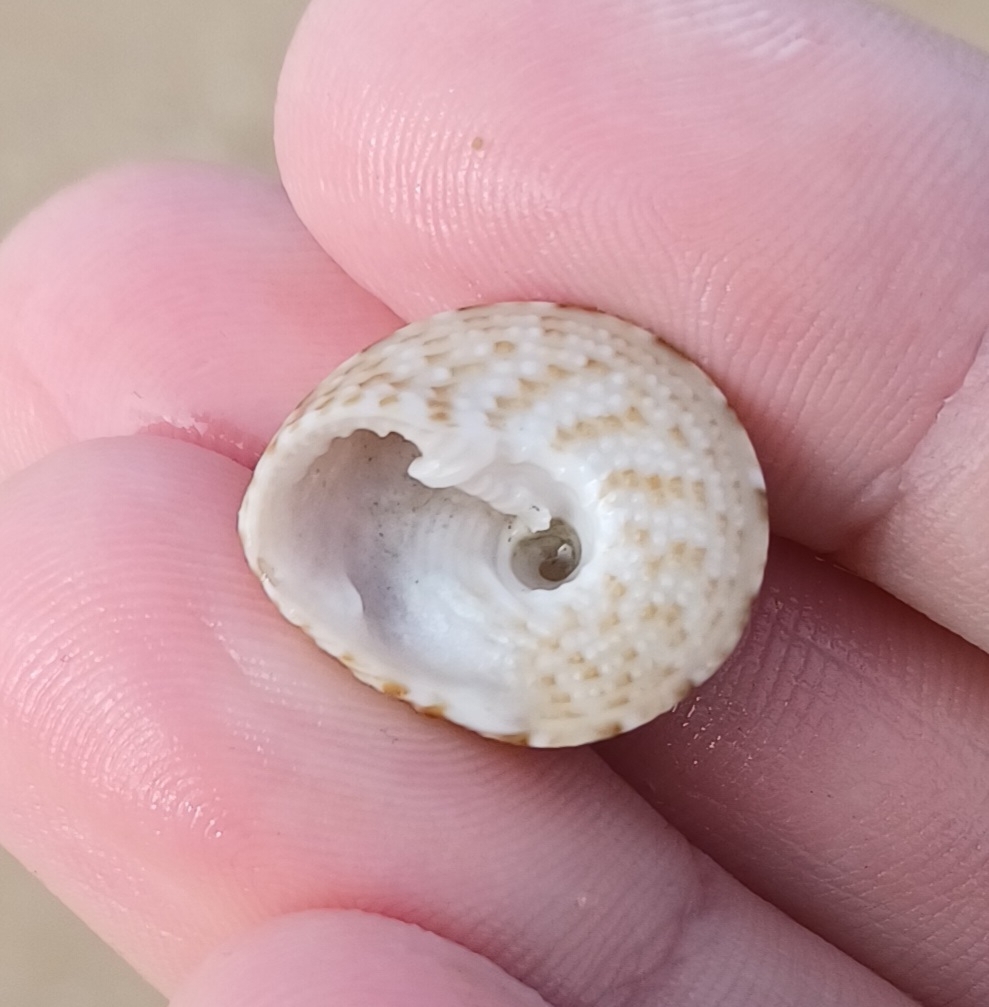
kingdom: Animalia
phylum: Mollusca
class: Gastropoda
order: Trochida
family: Trochidae
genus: Clanculus
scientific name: Clanculus limbatus
